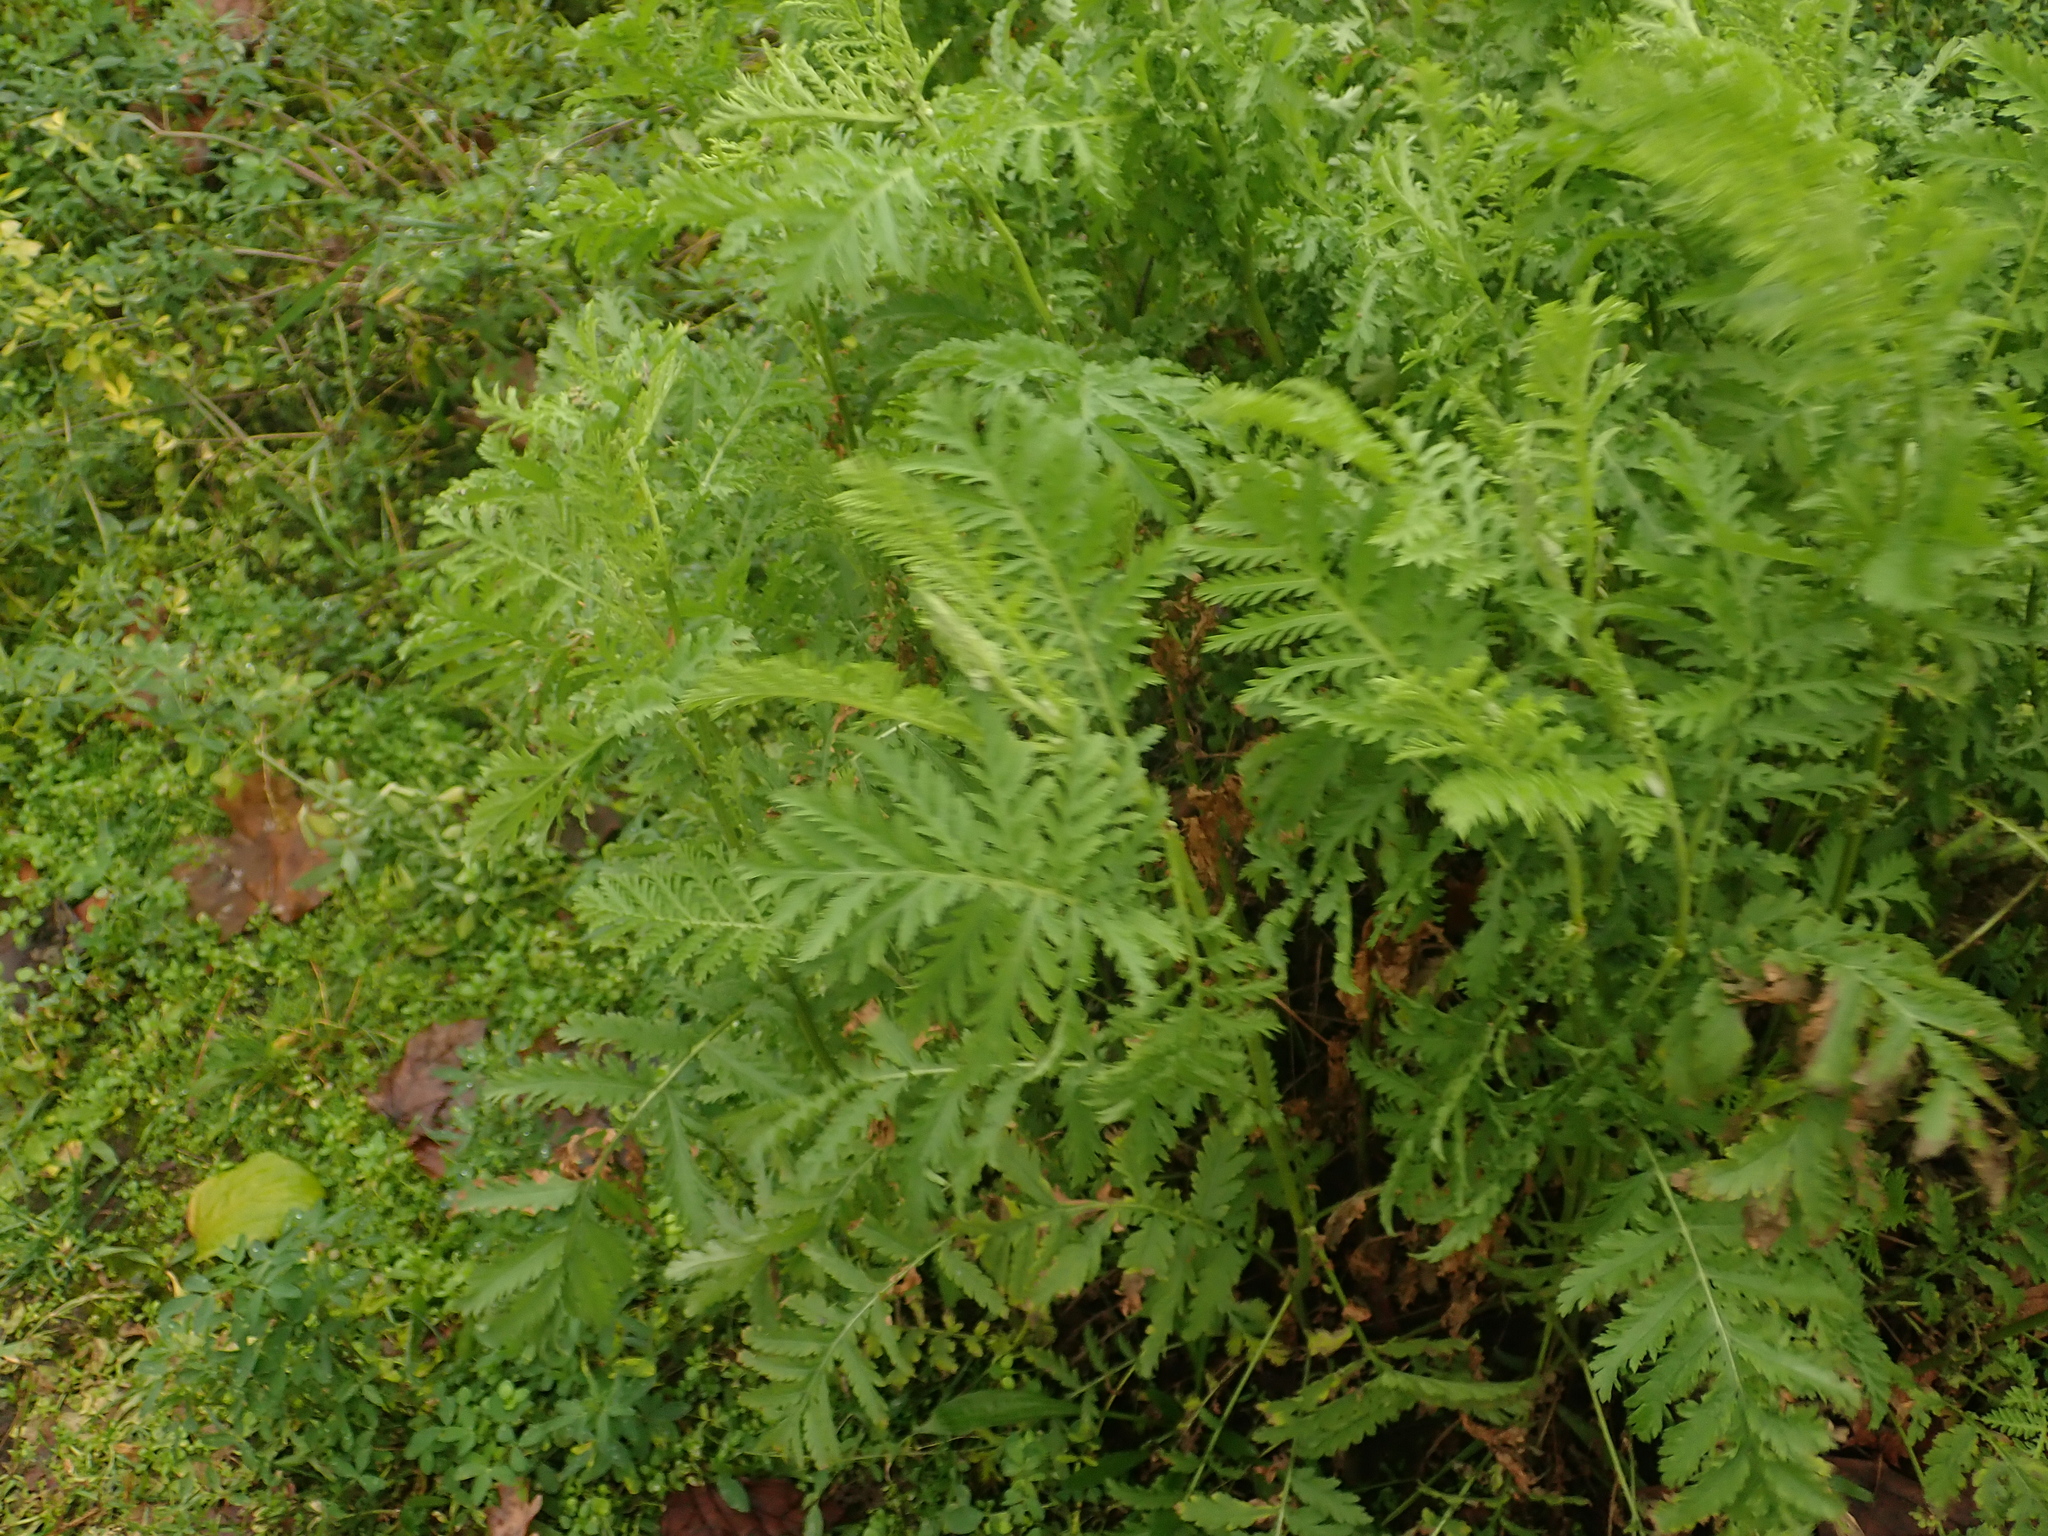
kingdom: Plantae
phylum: Tracheophyta
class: Magnoliopsida
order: Asterales
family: Asteraceae
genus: Tanacetum
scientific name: Tanacetum vulgare
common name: Common tansy
